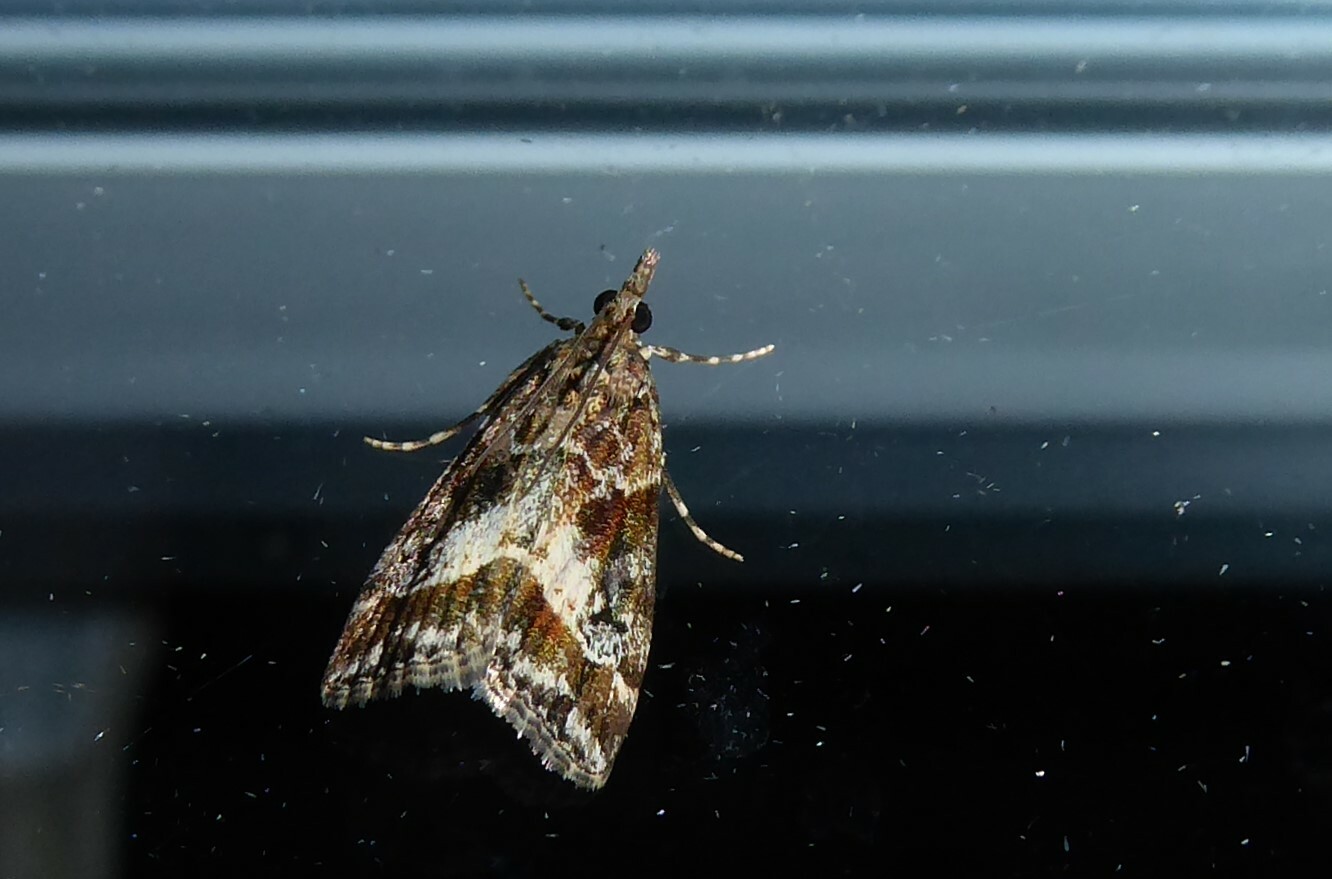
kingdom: Animalia
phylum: Arthropoda
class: Insecta
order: Lepidoptera
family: Crambidae
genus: Eudonia
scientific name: Eudonia legnota
